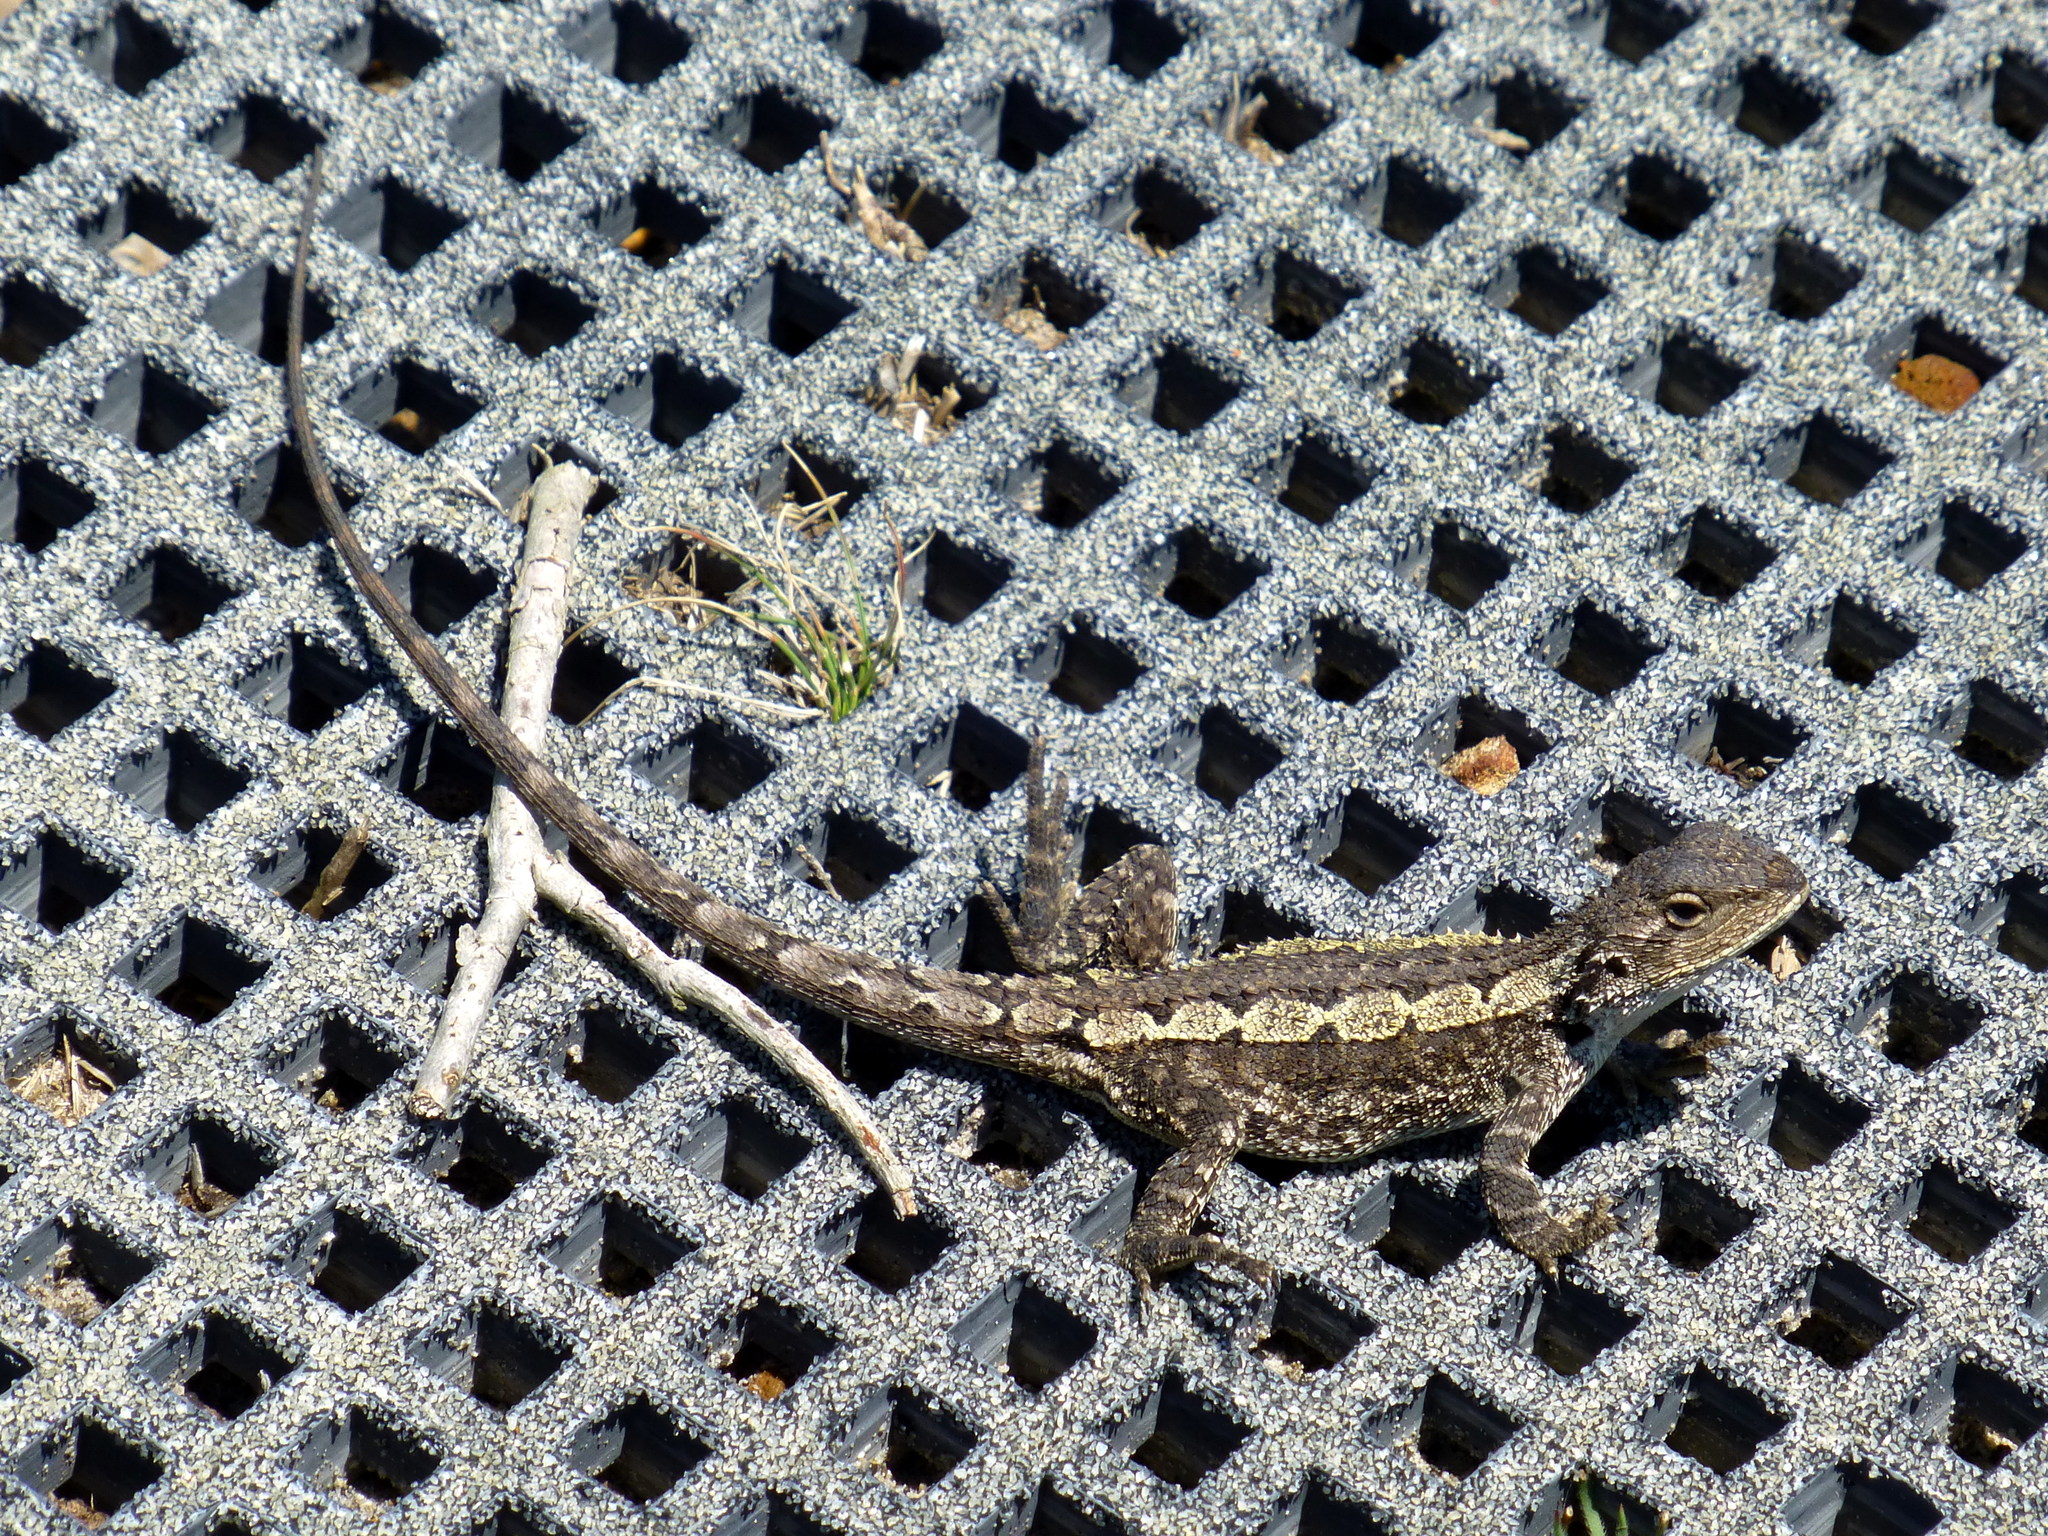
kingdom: Animalia
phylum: Chordata
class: Squamata
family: Agamidae
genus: Amphibolurus
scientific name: Amphibolurus muricatus
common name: Jacky lizard
